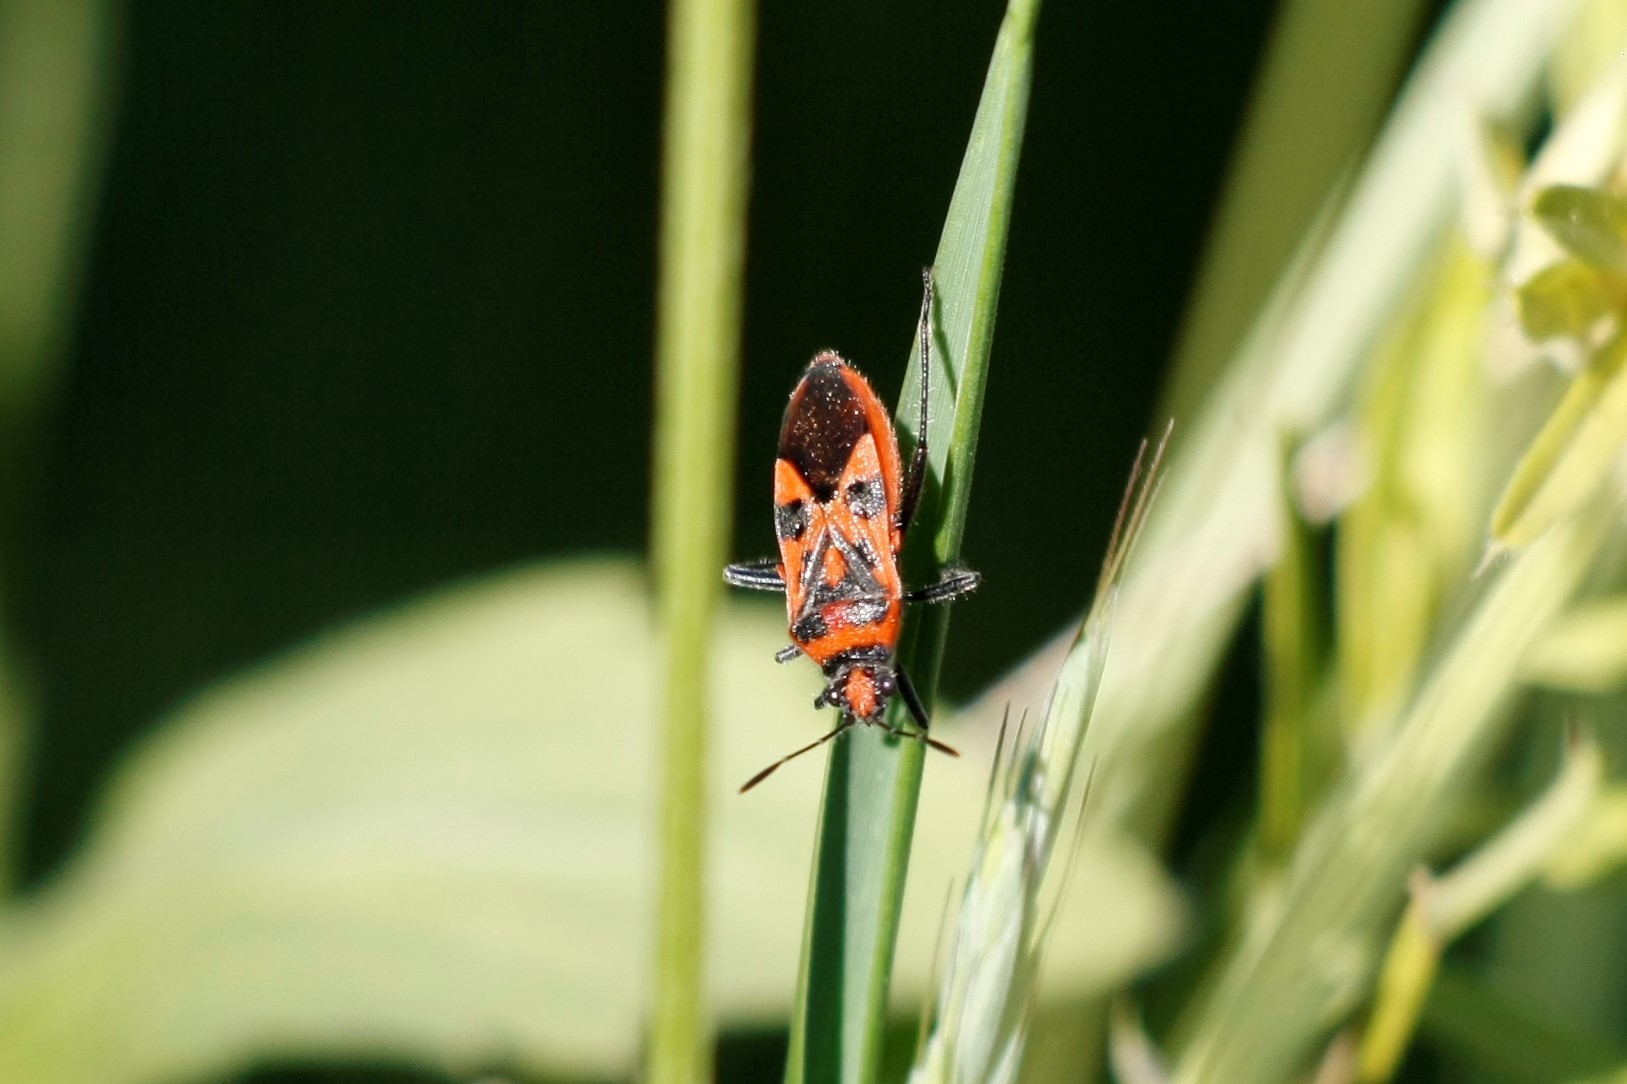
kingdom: Animalia
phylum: Arthropoda
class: Insecta
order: Hemiptera
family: Rhopalidae
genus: Corizus
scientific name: Corizus hyoscyami
